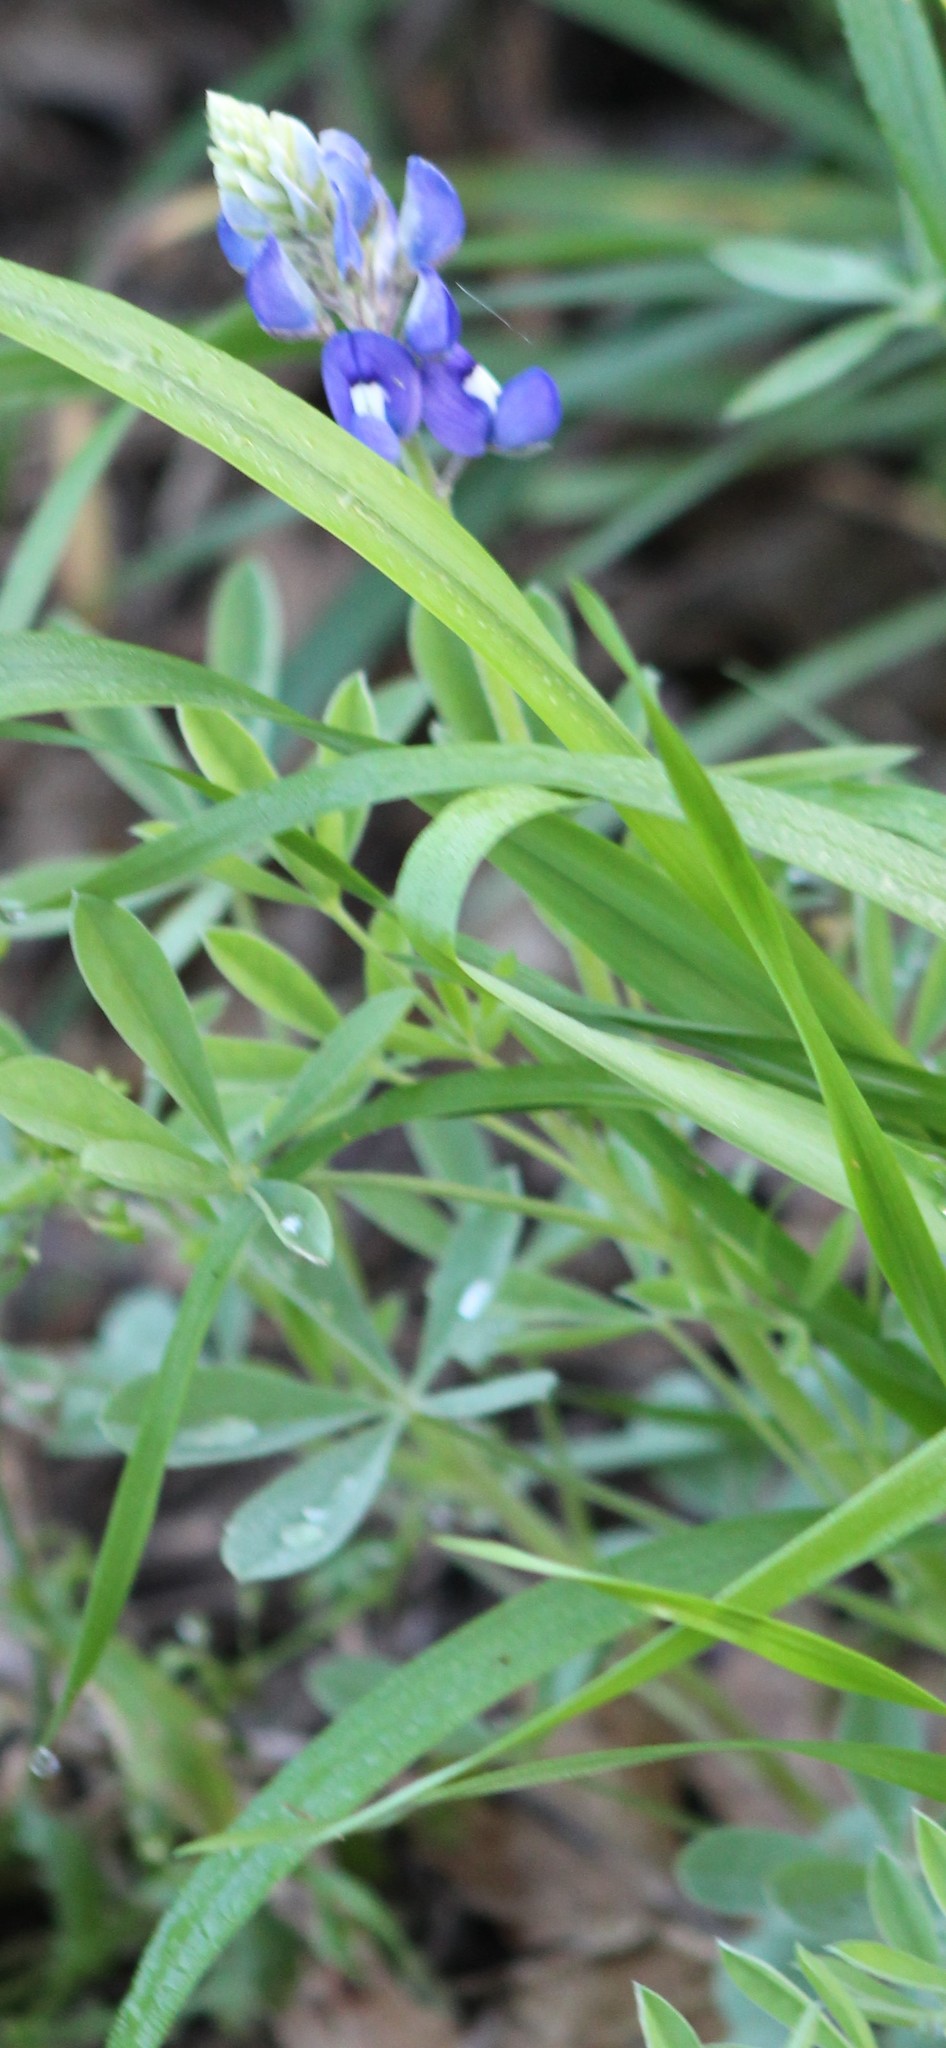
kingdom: Plantae
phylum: Tracheophyta
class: Magnoliopsida
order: Fabales
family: Fabaceae
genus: Lupinus
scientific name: Lupinus texensis
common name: Texas bluebonnet
